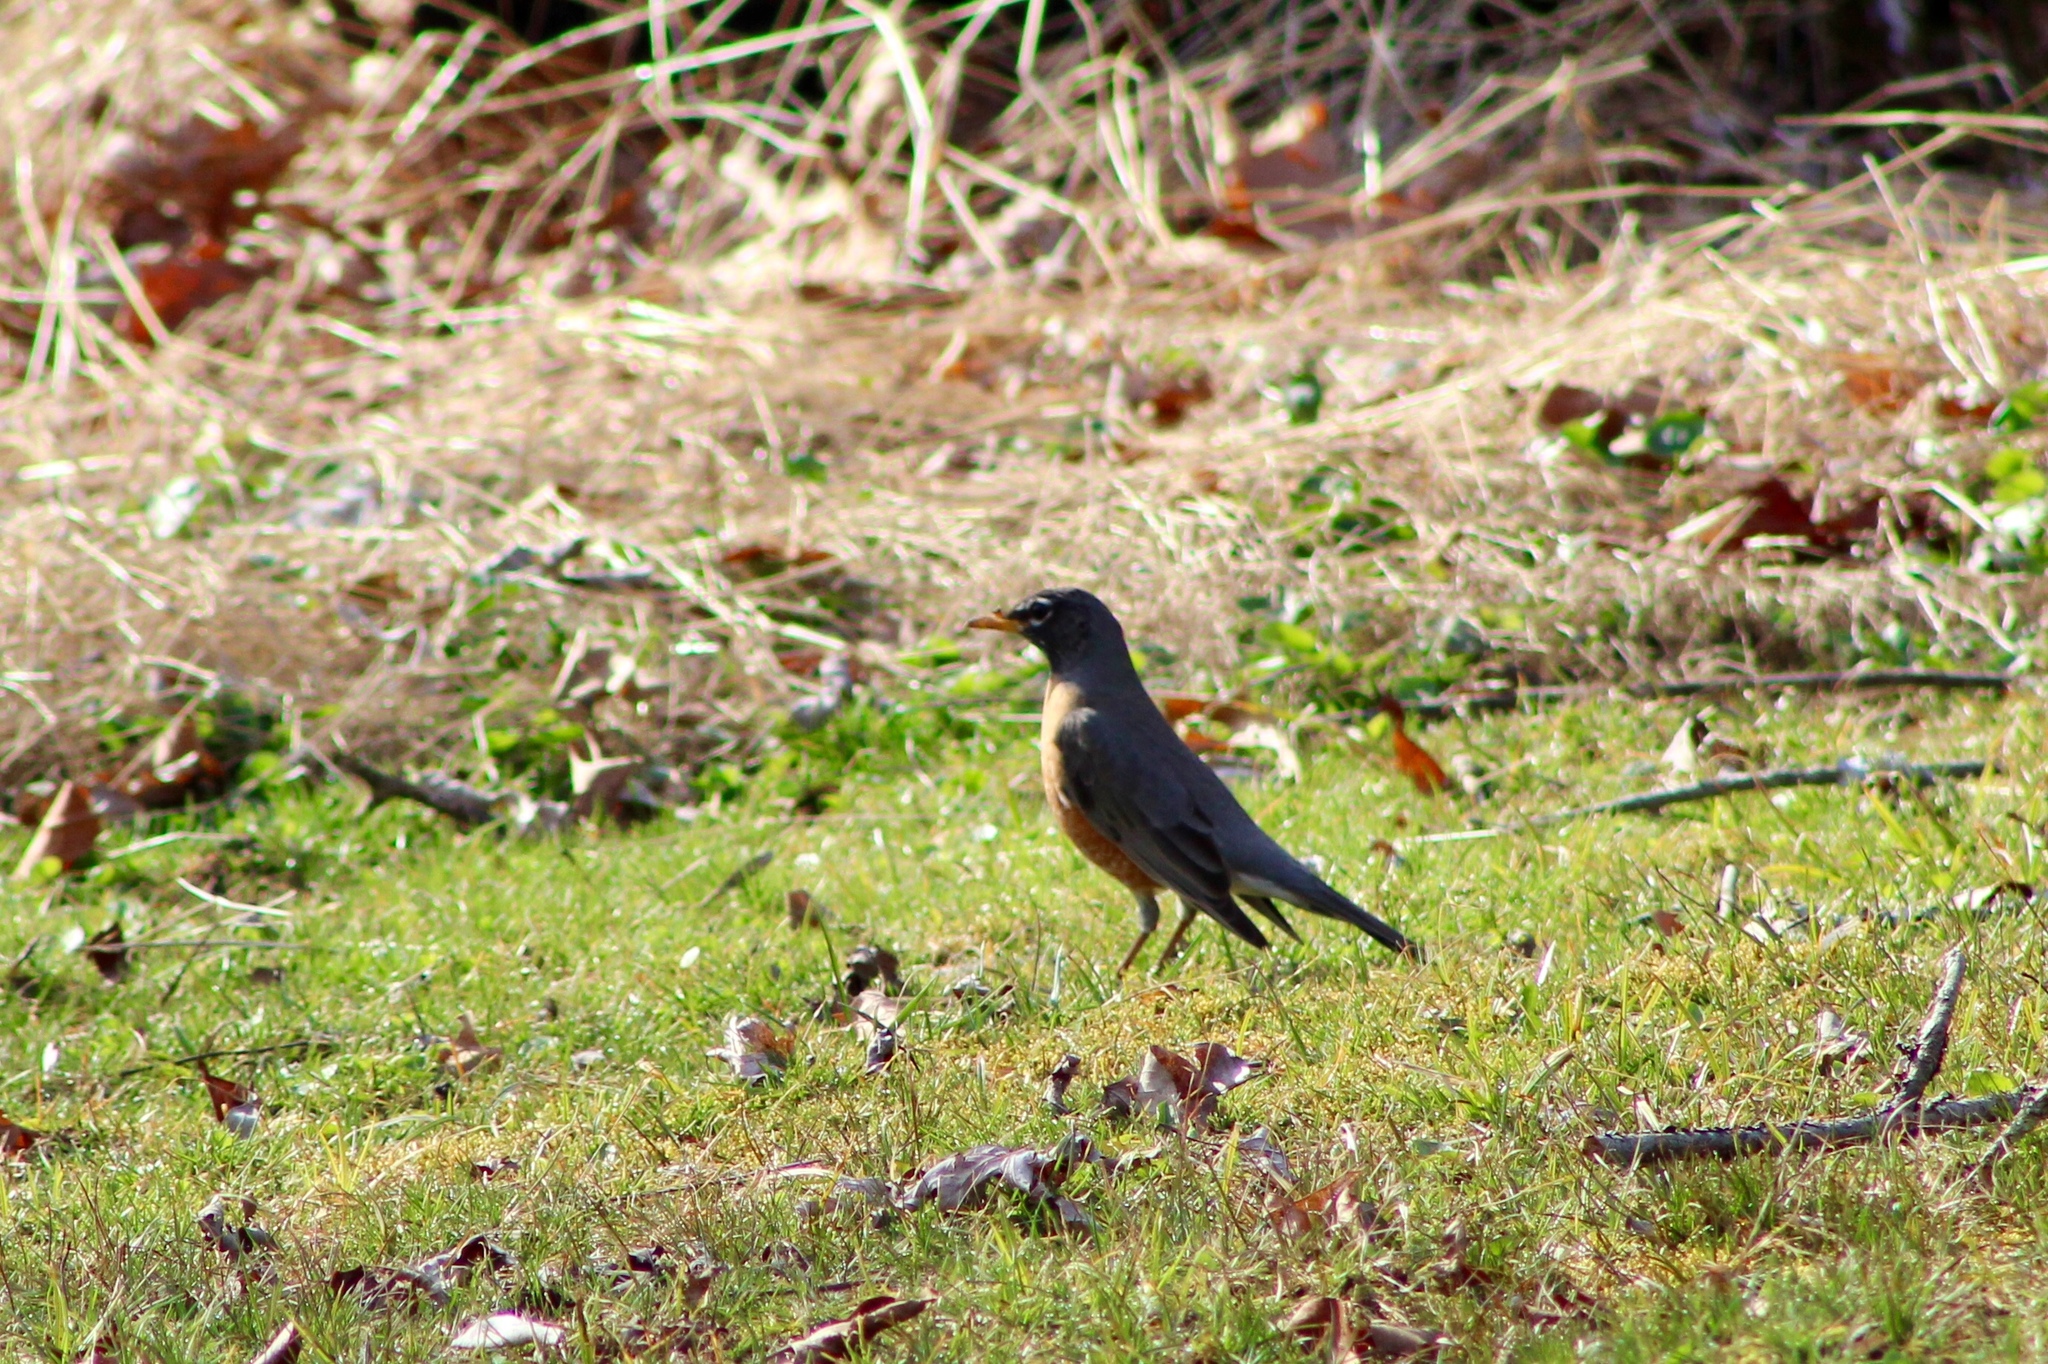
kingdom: Animalia
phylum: Chordata
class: Aves
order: Passeriformes
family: Turdidae
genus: Turdus
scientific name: Turdus migratorius
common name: American robin
